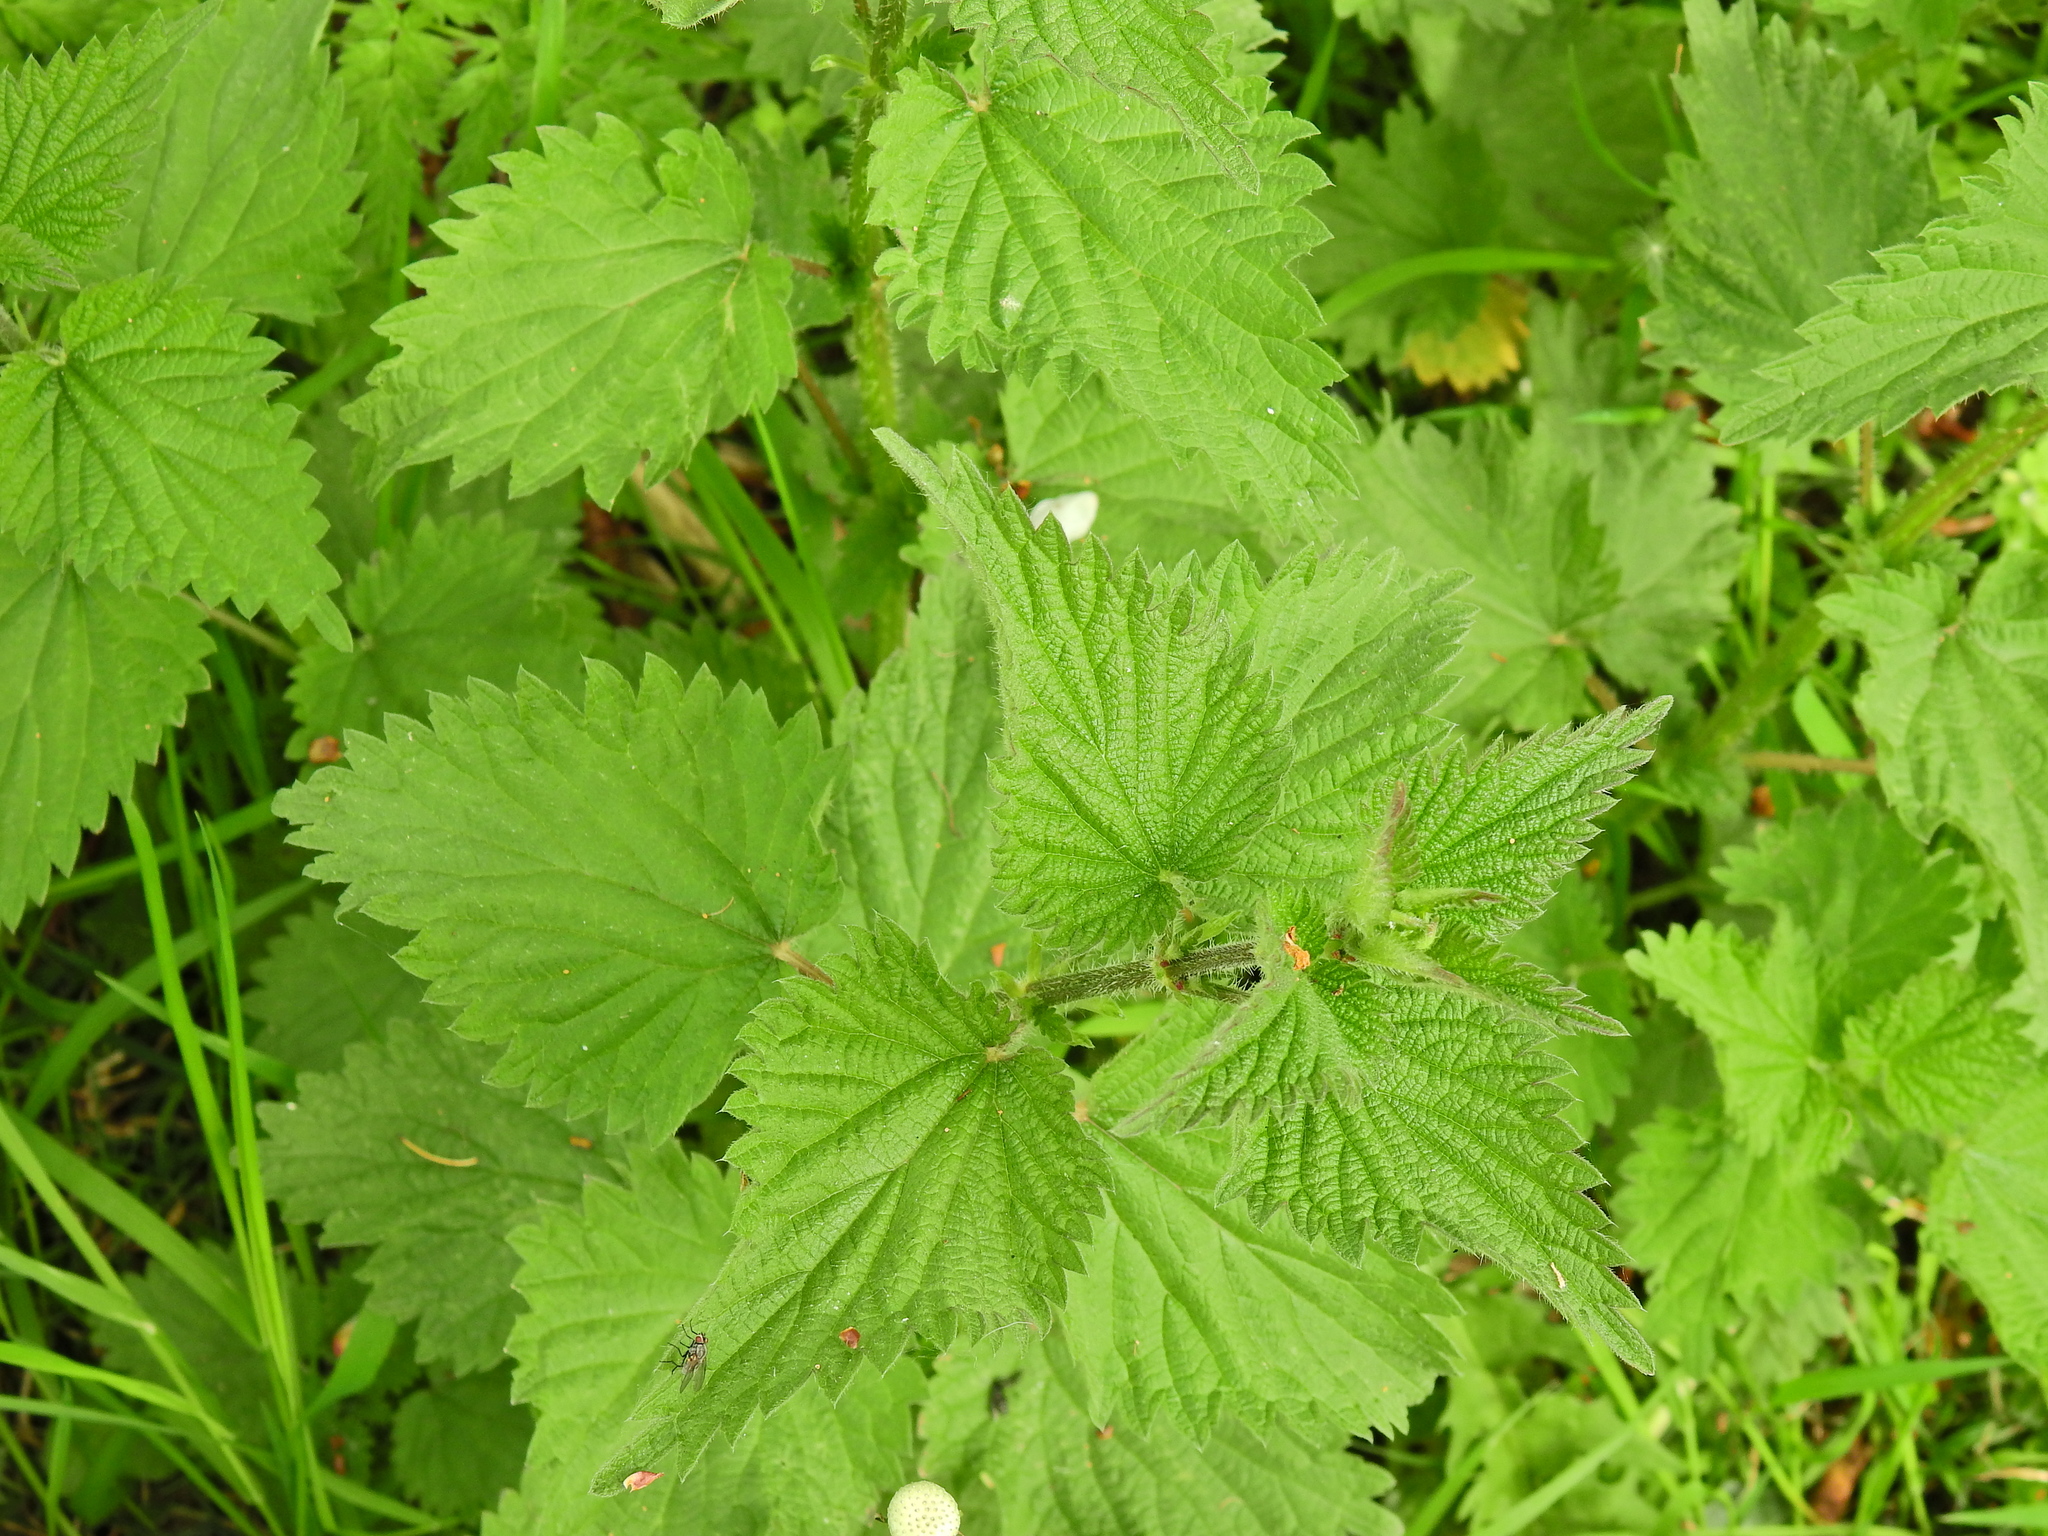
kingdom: Plantae
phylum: Tracheophyta
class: Magnoliopsida
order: Rosales
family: Urticaceae
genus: Urtica
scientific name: Urtica dioica
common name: Common nettle
